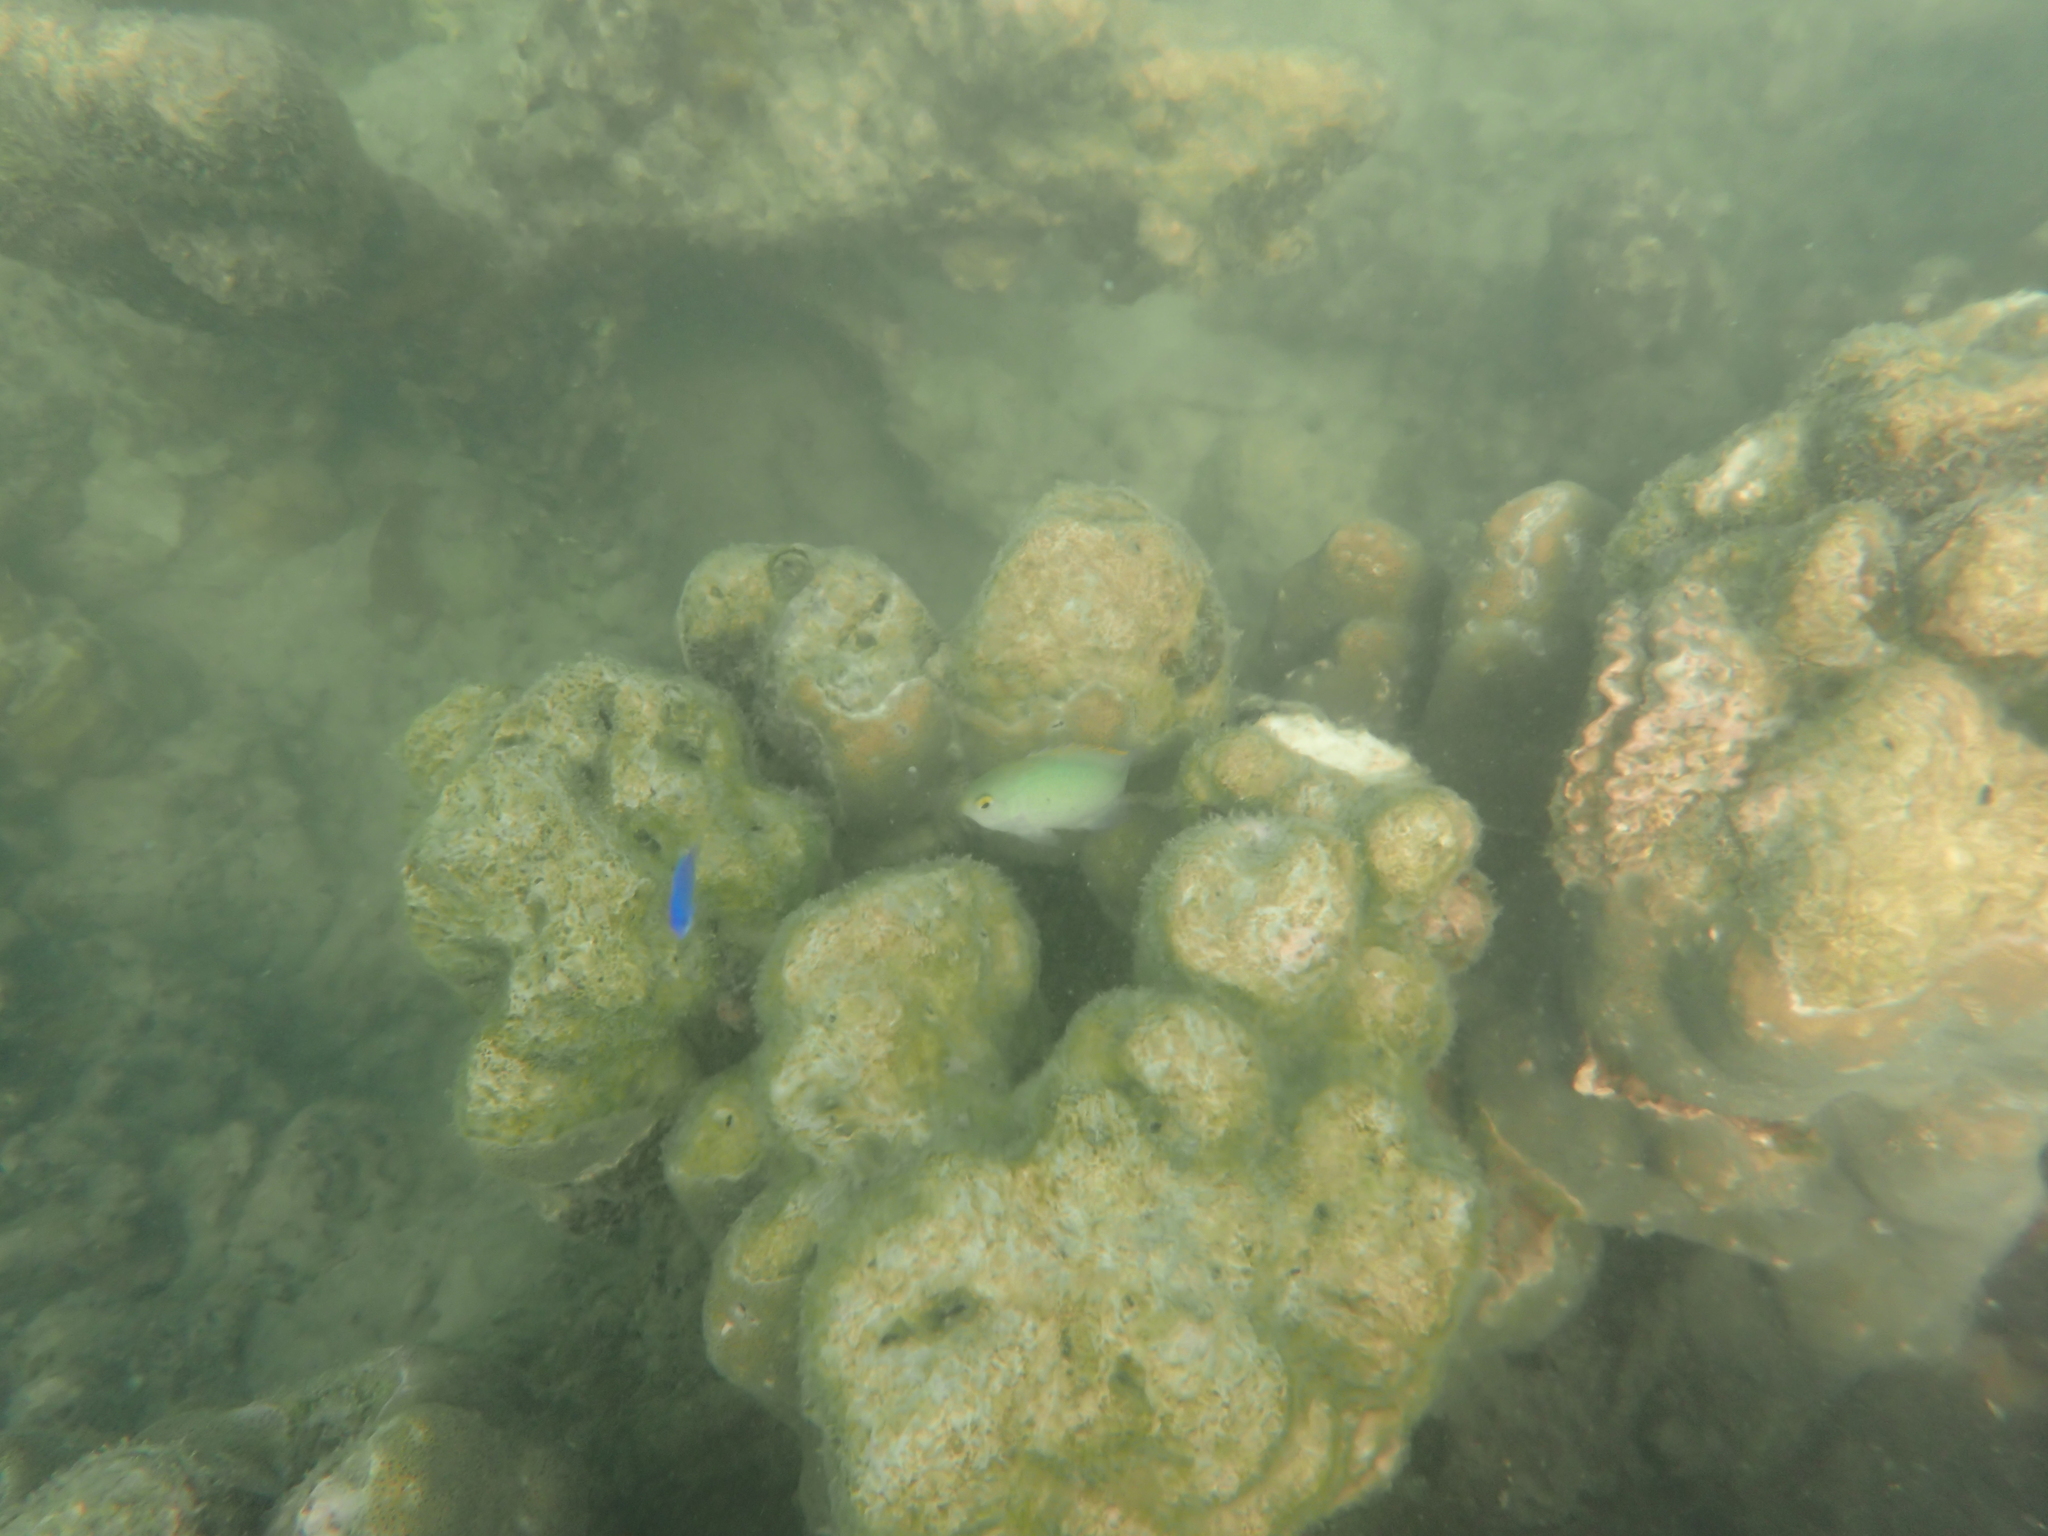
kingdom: Animalia
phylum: Chordata
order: Perciformes
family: Pomacentridae
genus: Pomacentrus
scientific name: Pomacentrus smithi
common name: Smith's damsel
